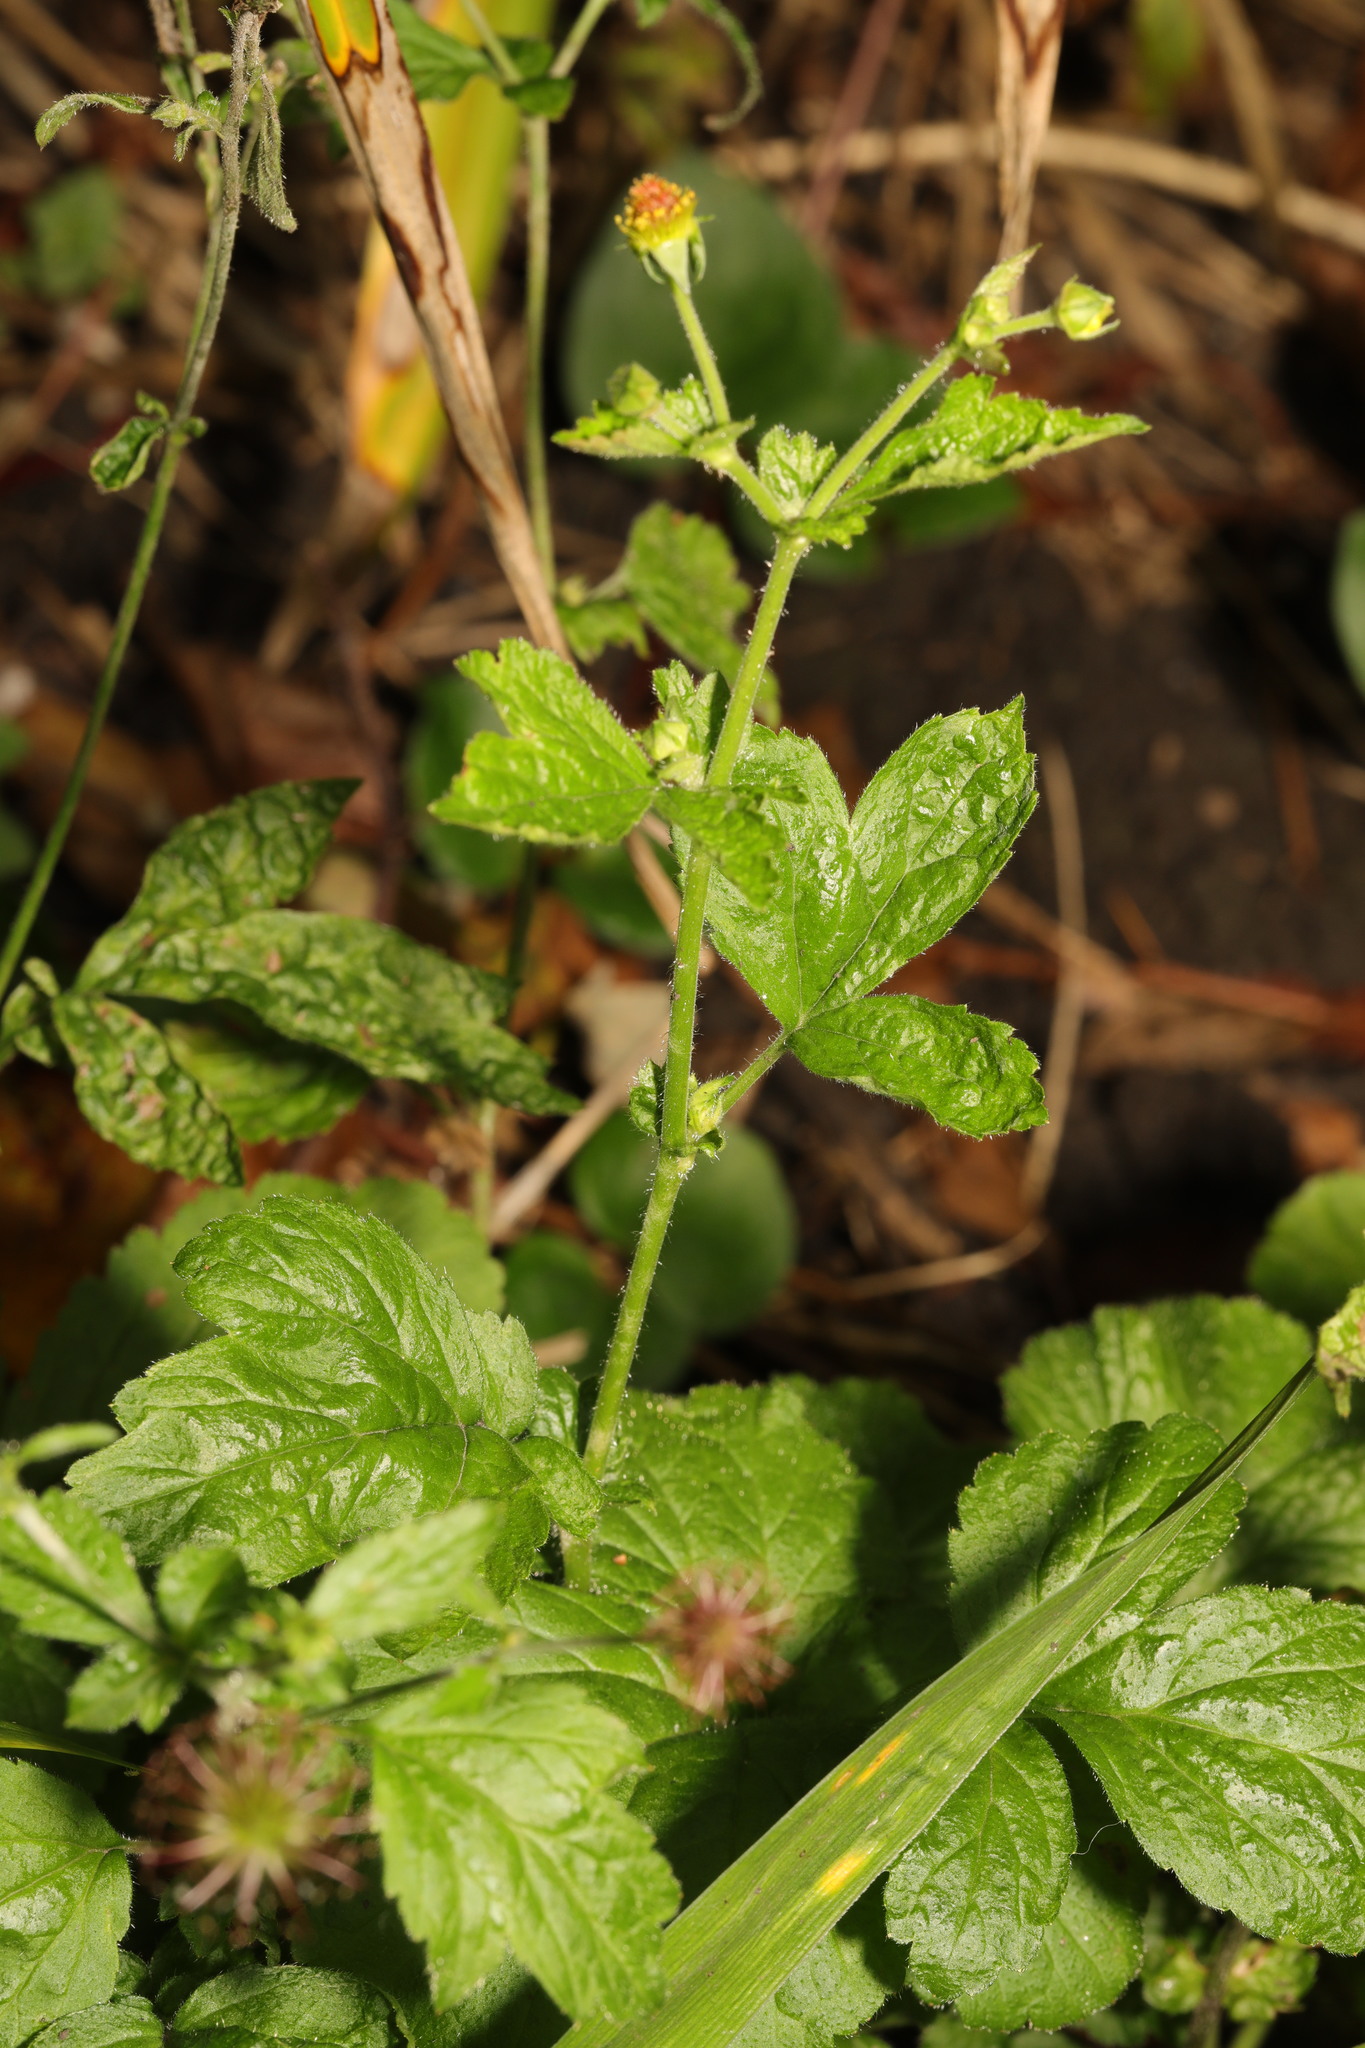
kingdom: Plantae
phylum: Tracheophyta
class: Magnoliopsida
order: Rosales
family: Rosaceae
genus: Geum
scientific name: Geum urbanum
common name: Wood avens
